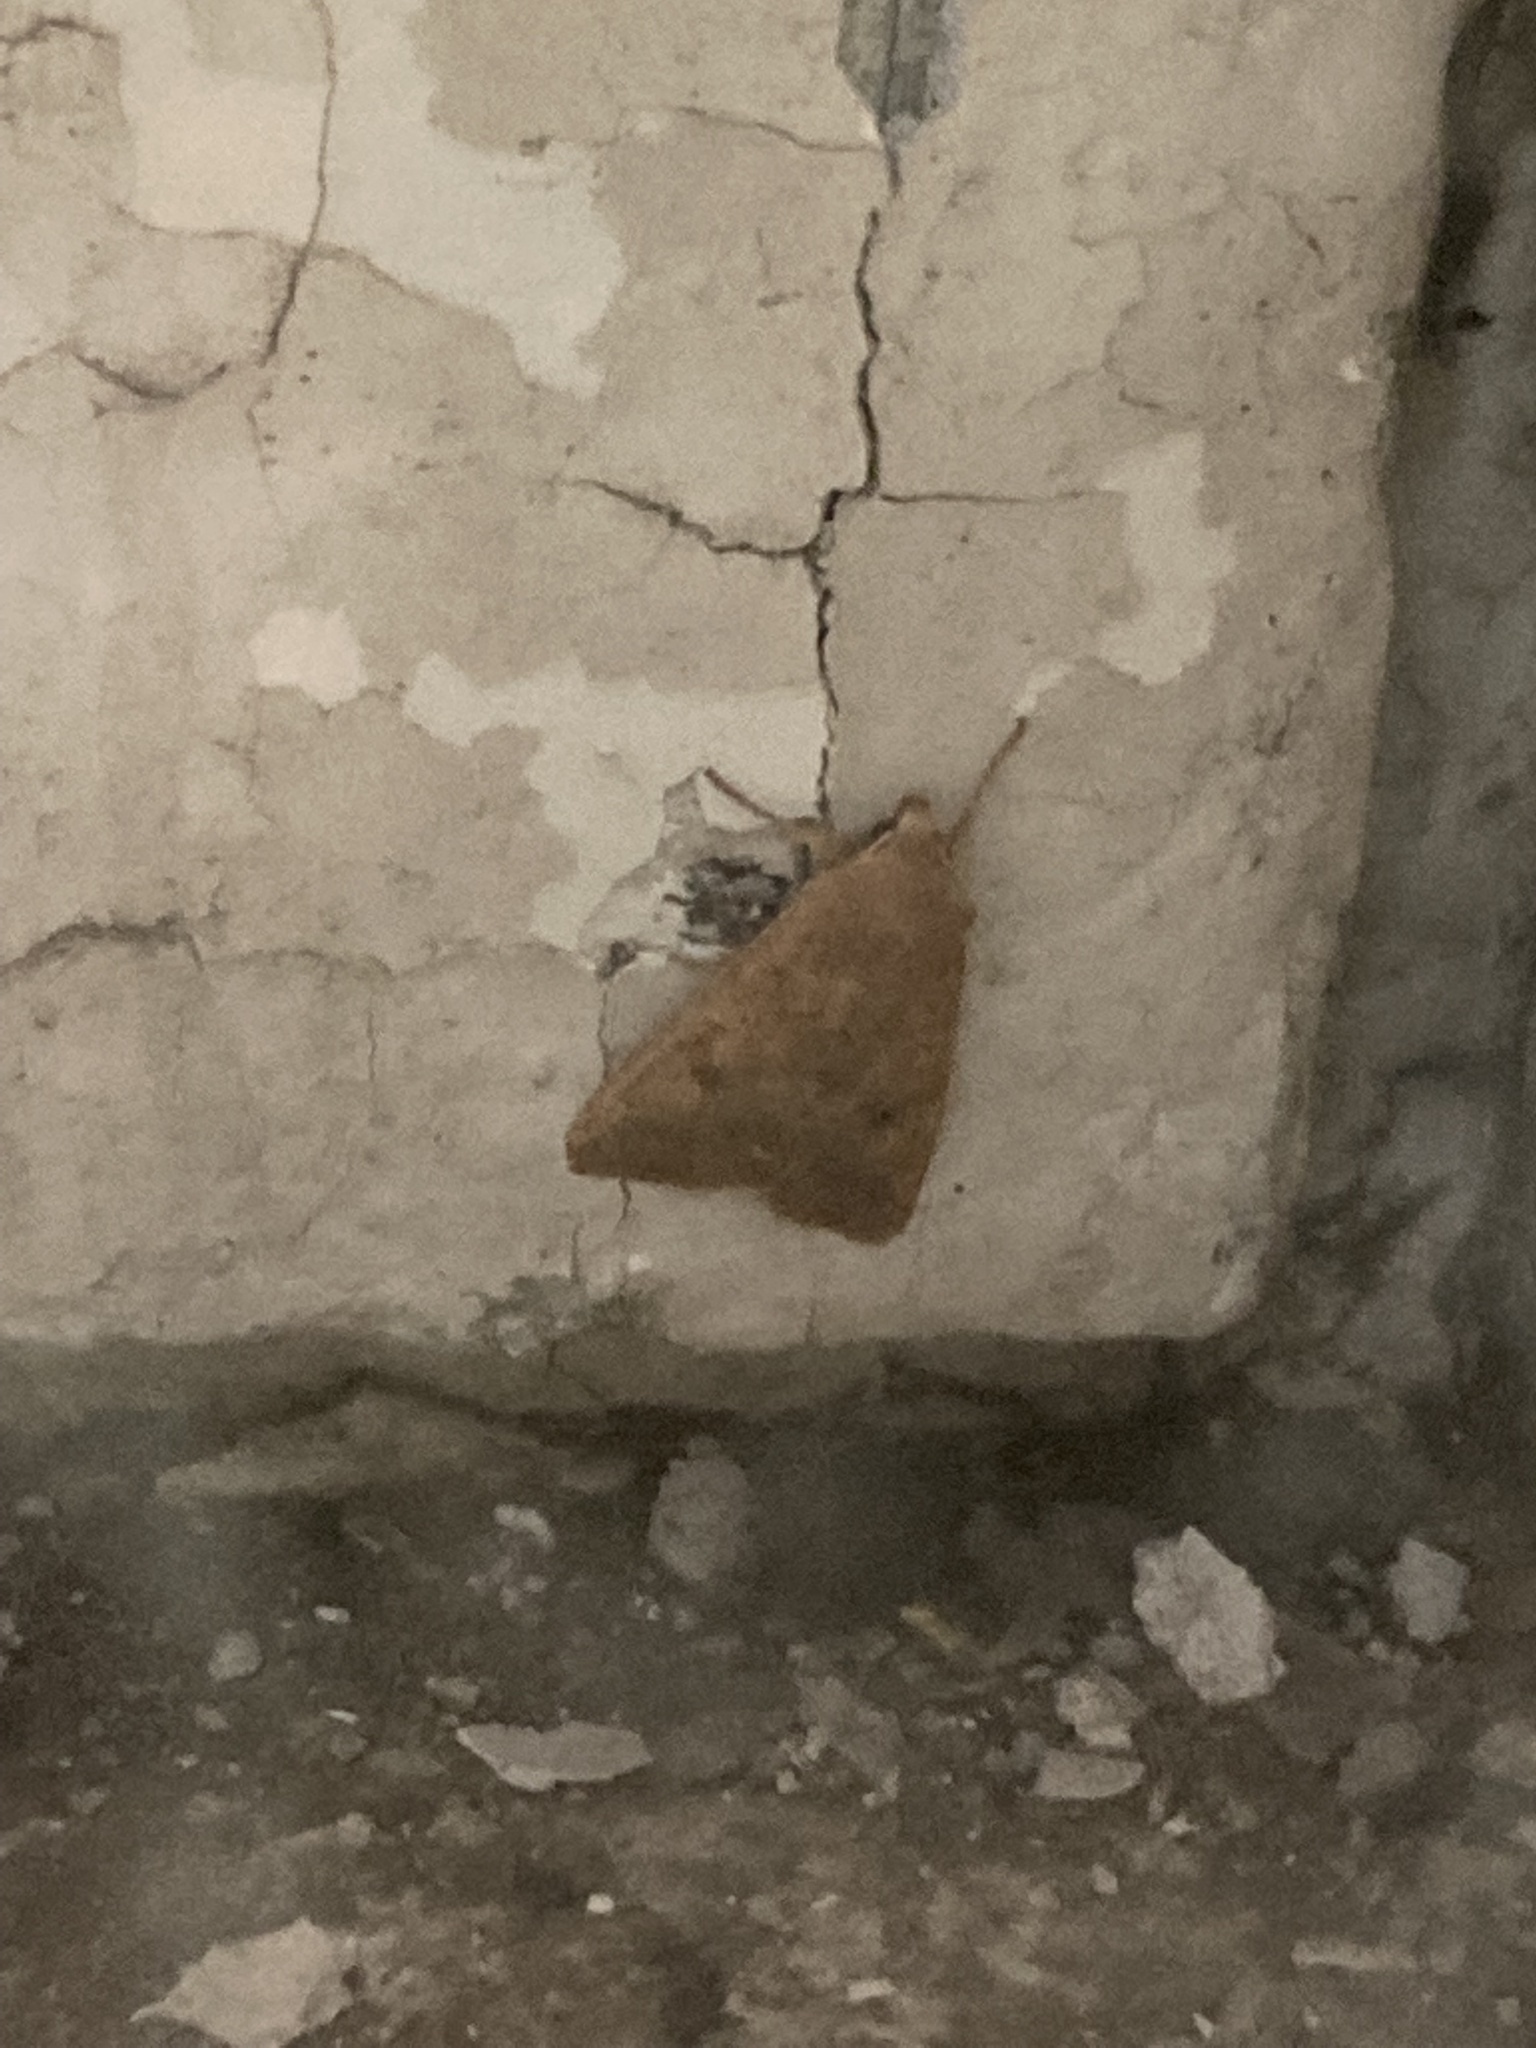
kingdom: Animalia
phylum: Arthropoda
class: Insecta
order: Lepidoptera
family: Noctuidae
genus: Sunira
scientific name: Sunira circellaris
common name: Brick
